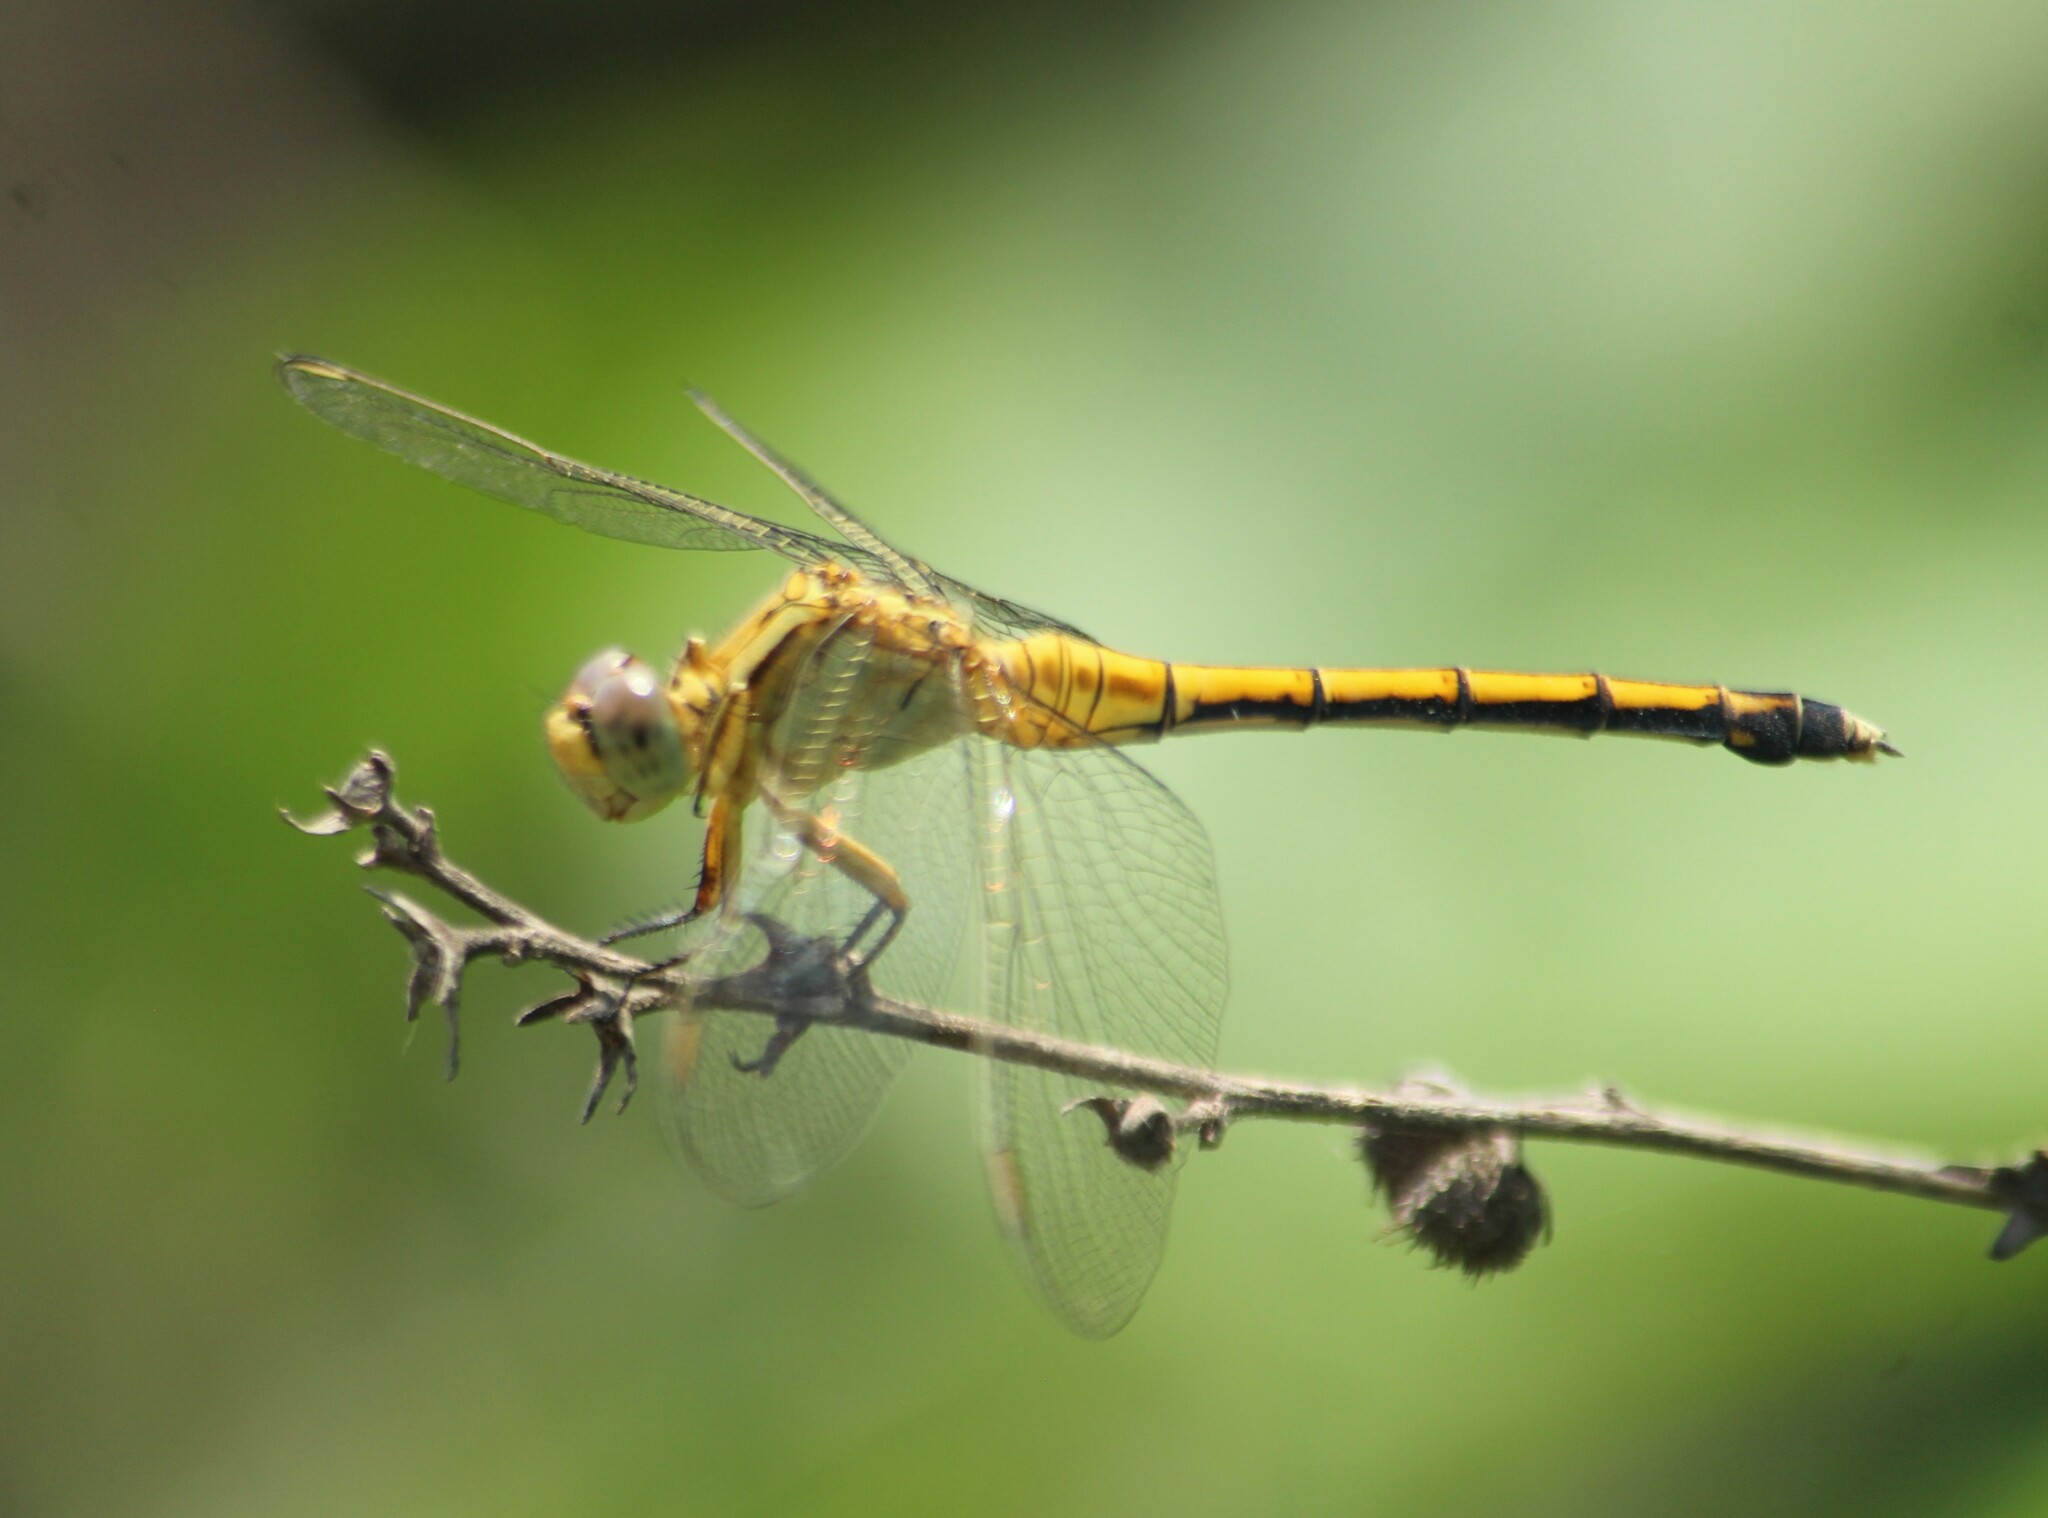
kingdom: Animalia
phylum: Arthropoda
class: Insecta
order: Odonata
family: Libellulidae
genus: Orthetrum
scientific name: Orthetrum luzonicum
